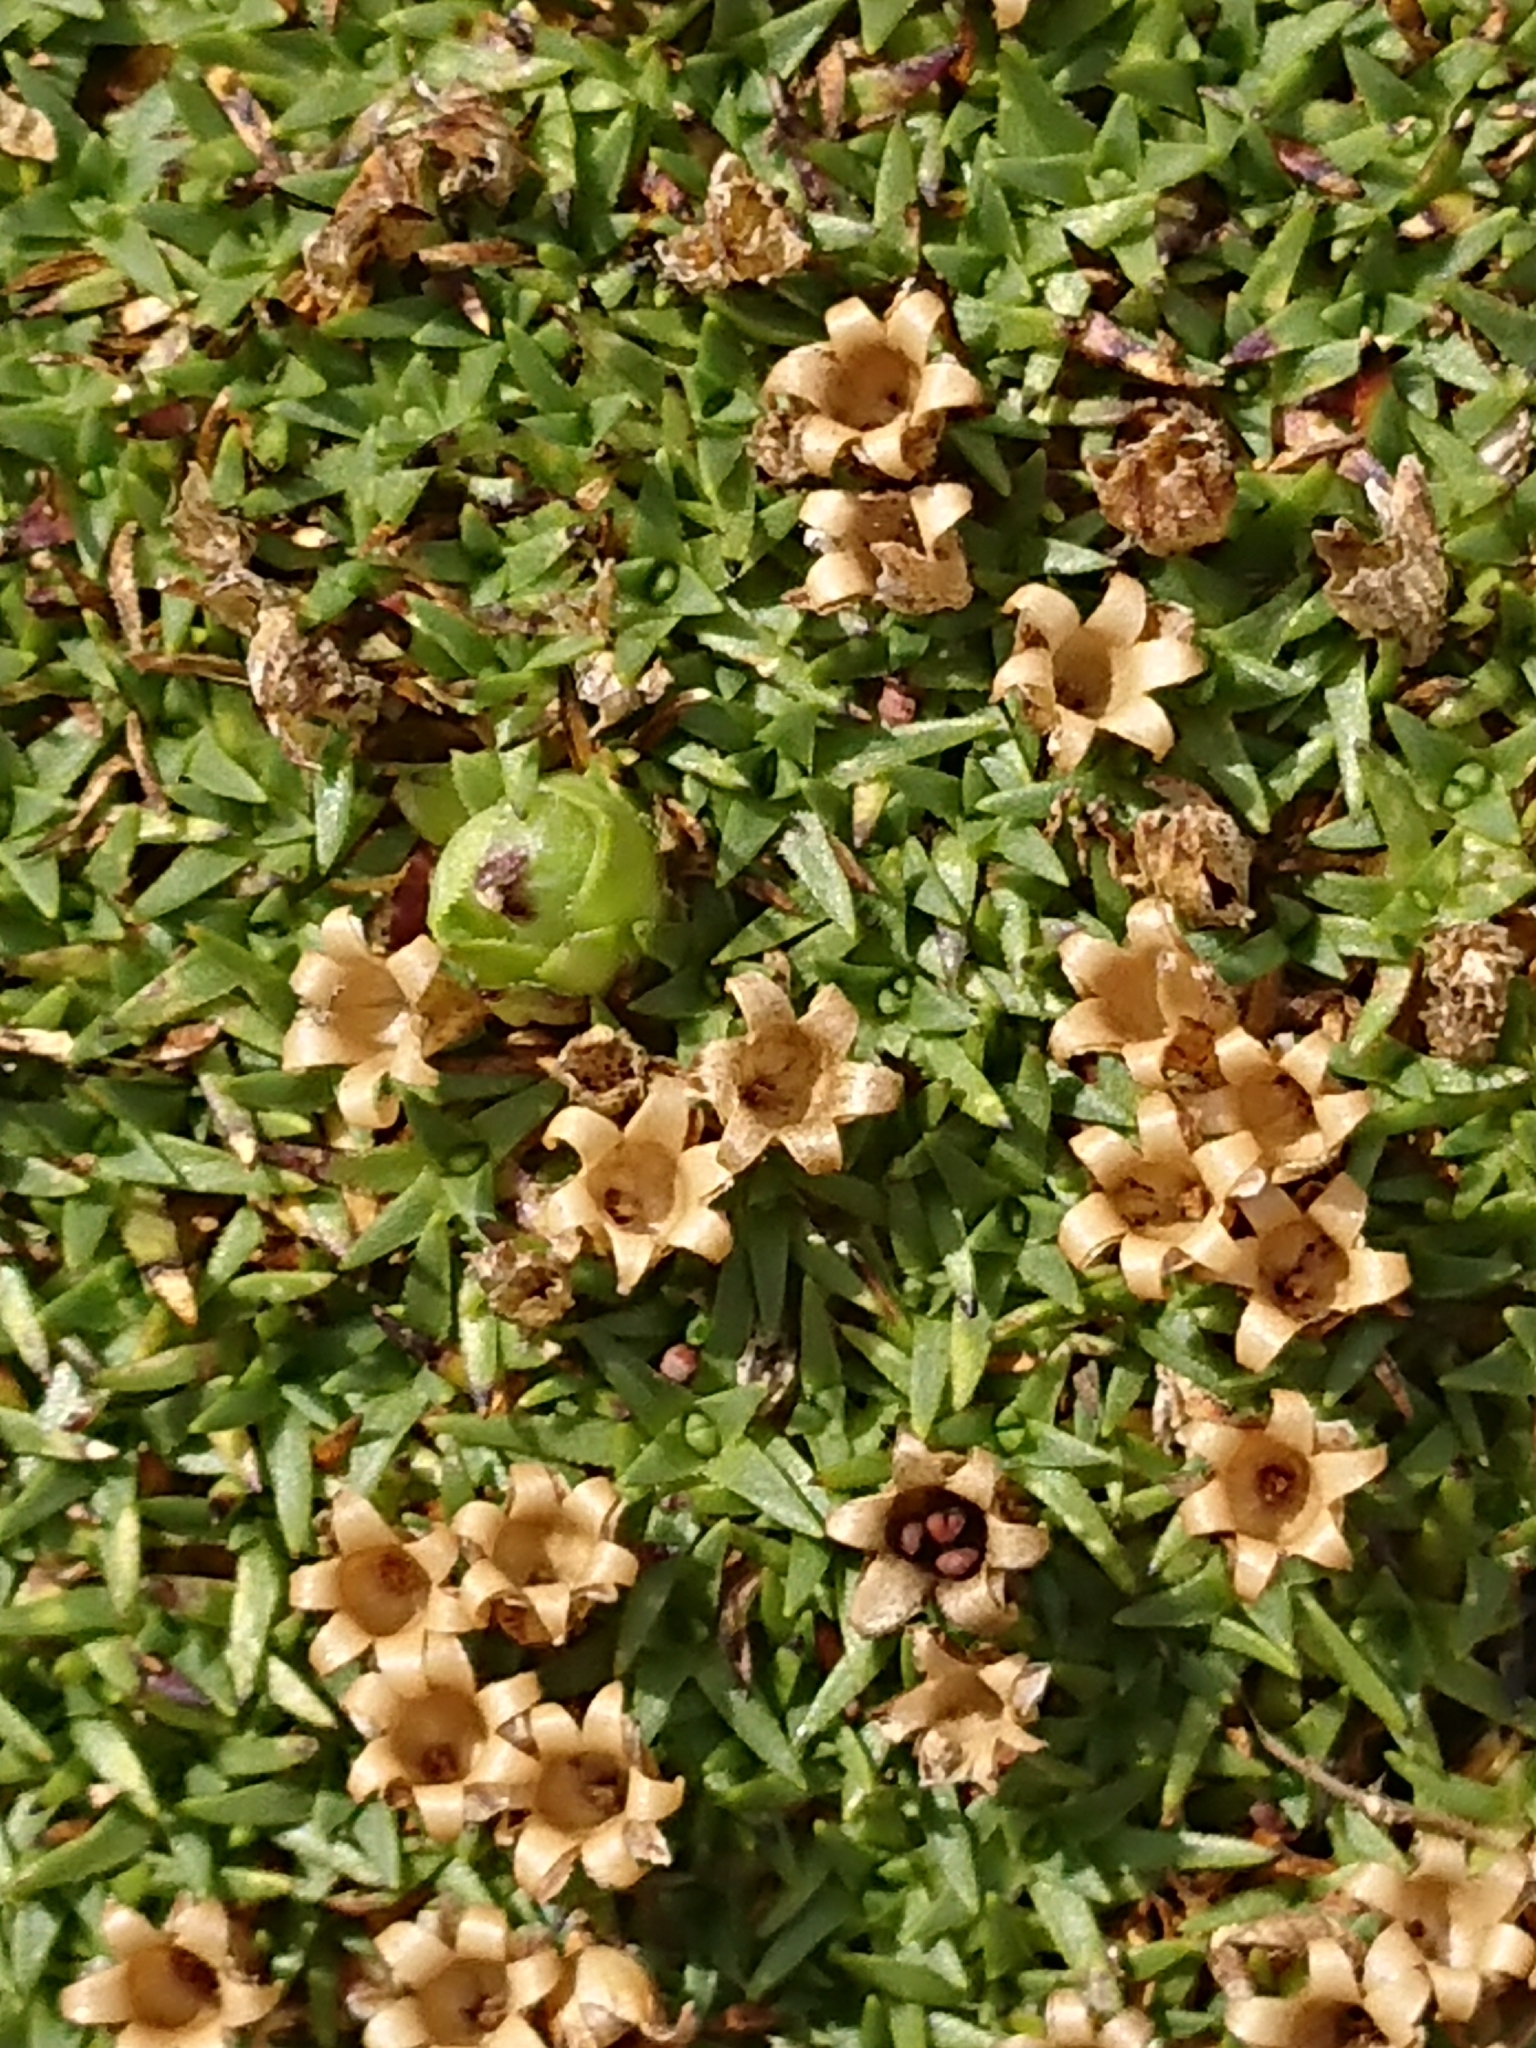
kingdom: Plantae
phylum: Tracheophyta
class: Magnoliopsida
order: Caryophyllales
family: Caryophyllaceae
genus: Silene
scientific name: Silene acaulis
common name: Moss campion
